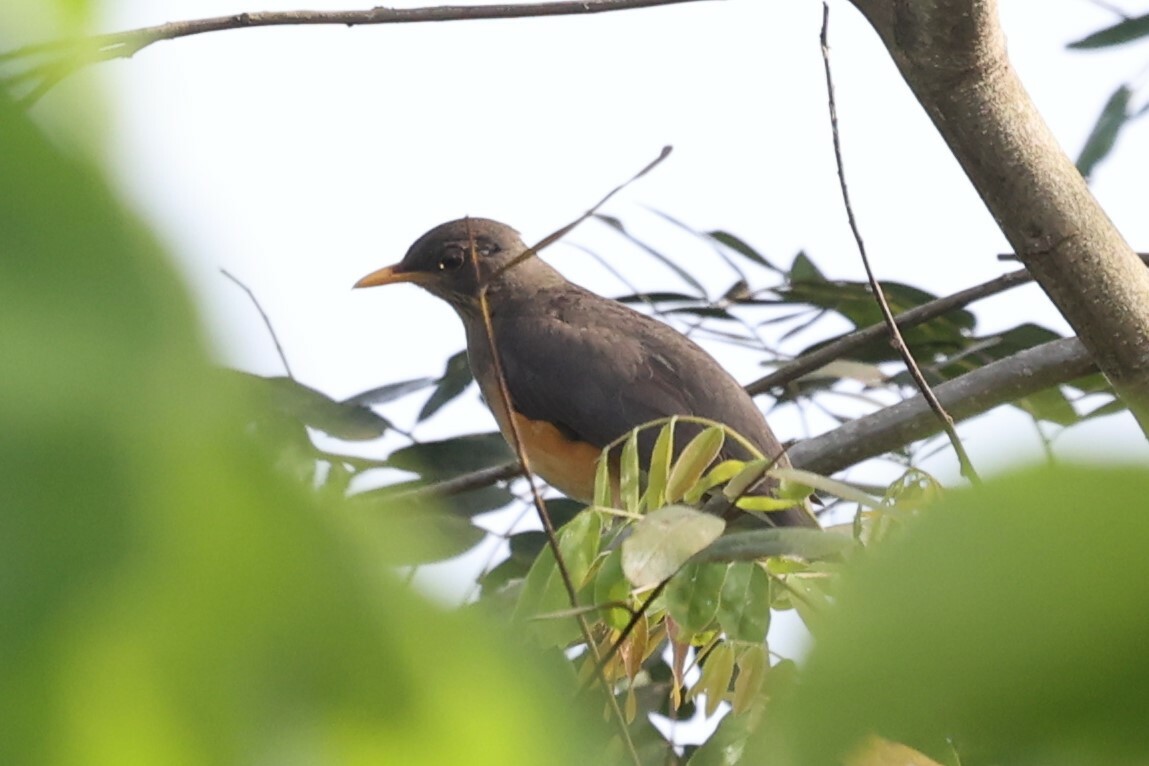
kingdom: Animalia
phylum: Chordata
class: Aves
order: Passeriformes
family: Turdidae
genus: Turdus
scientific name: Turdus pelios
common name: African thrush
